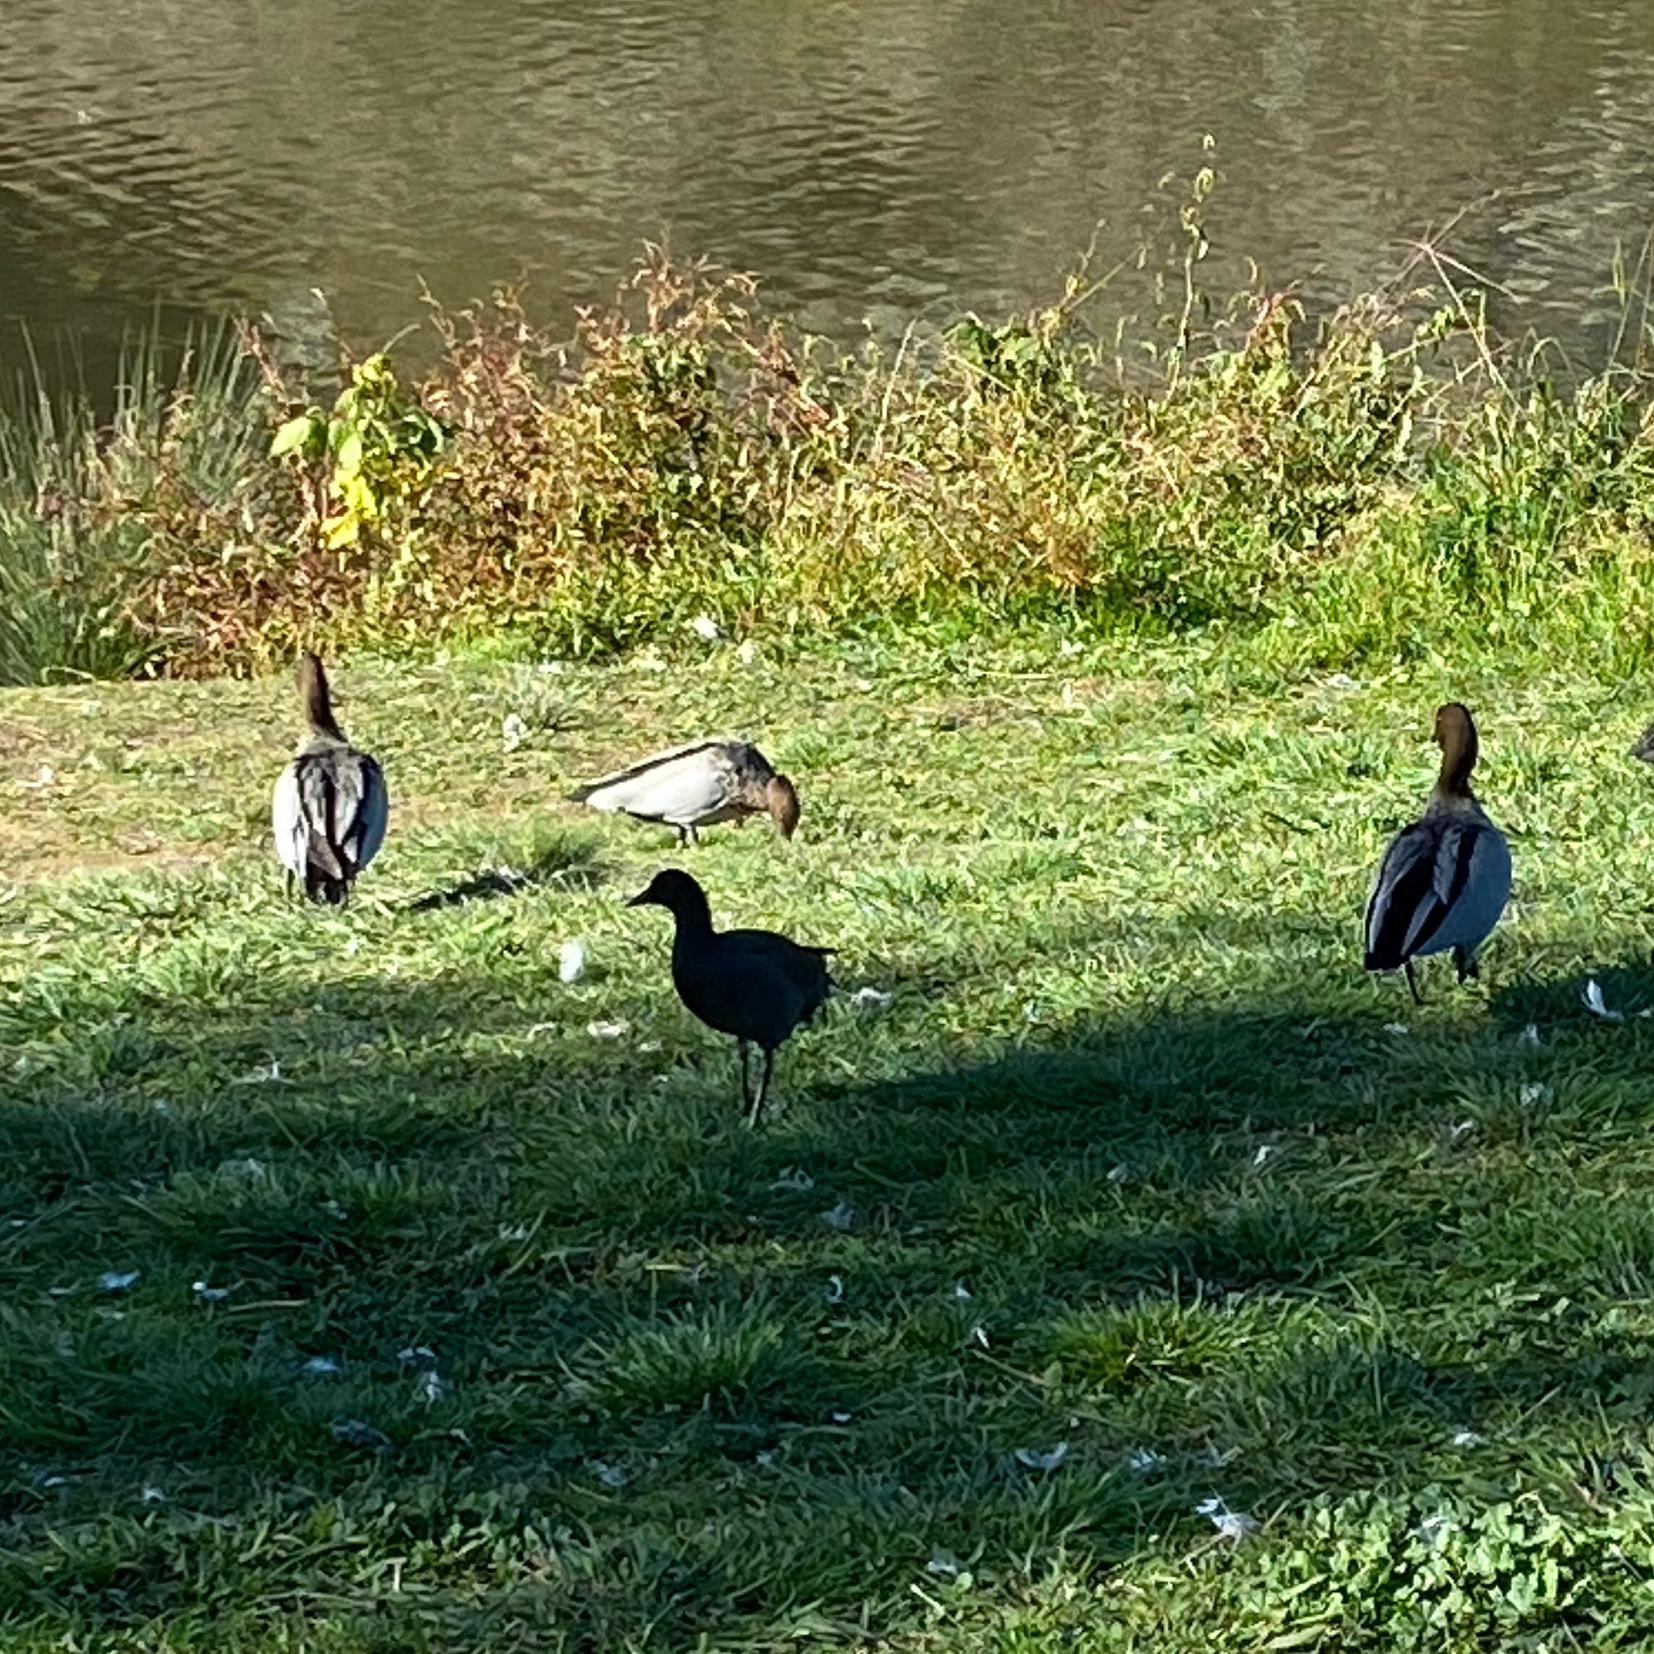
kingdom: Animalia
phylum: Chordata
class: Aves
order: Anseriformes
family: Anatidae
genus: Chenonetta
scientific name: Chenonetta jubata
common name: Maned duck
